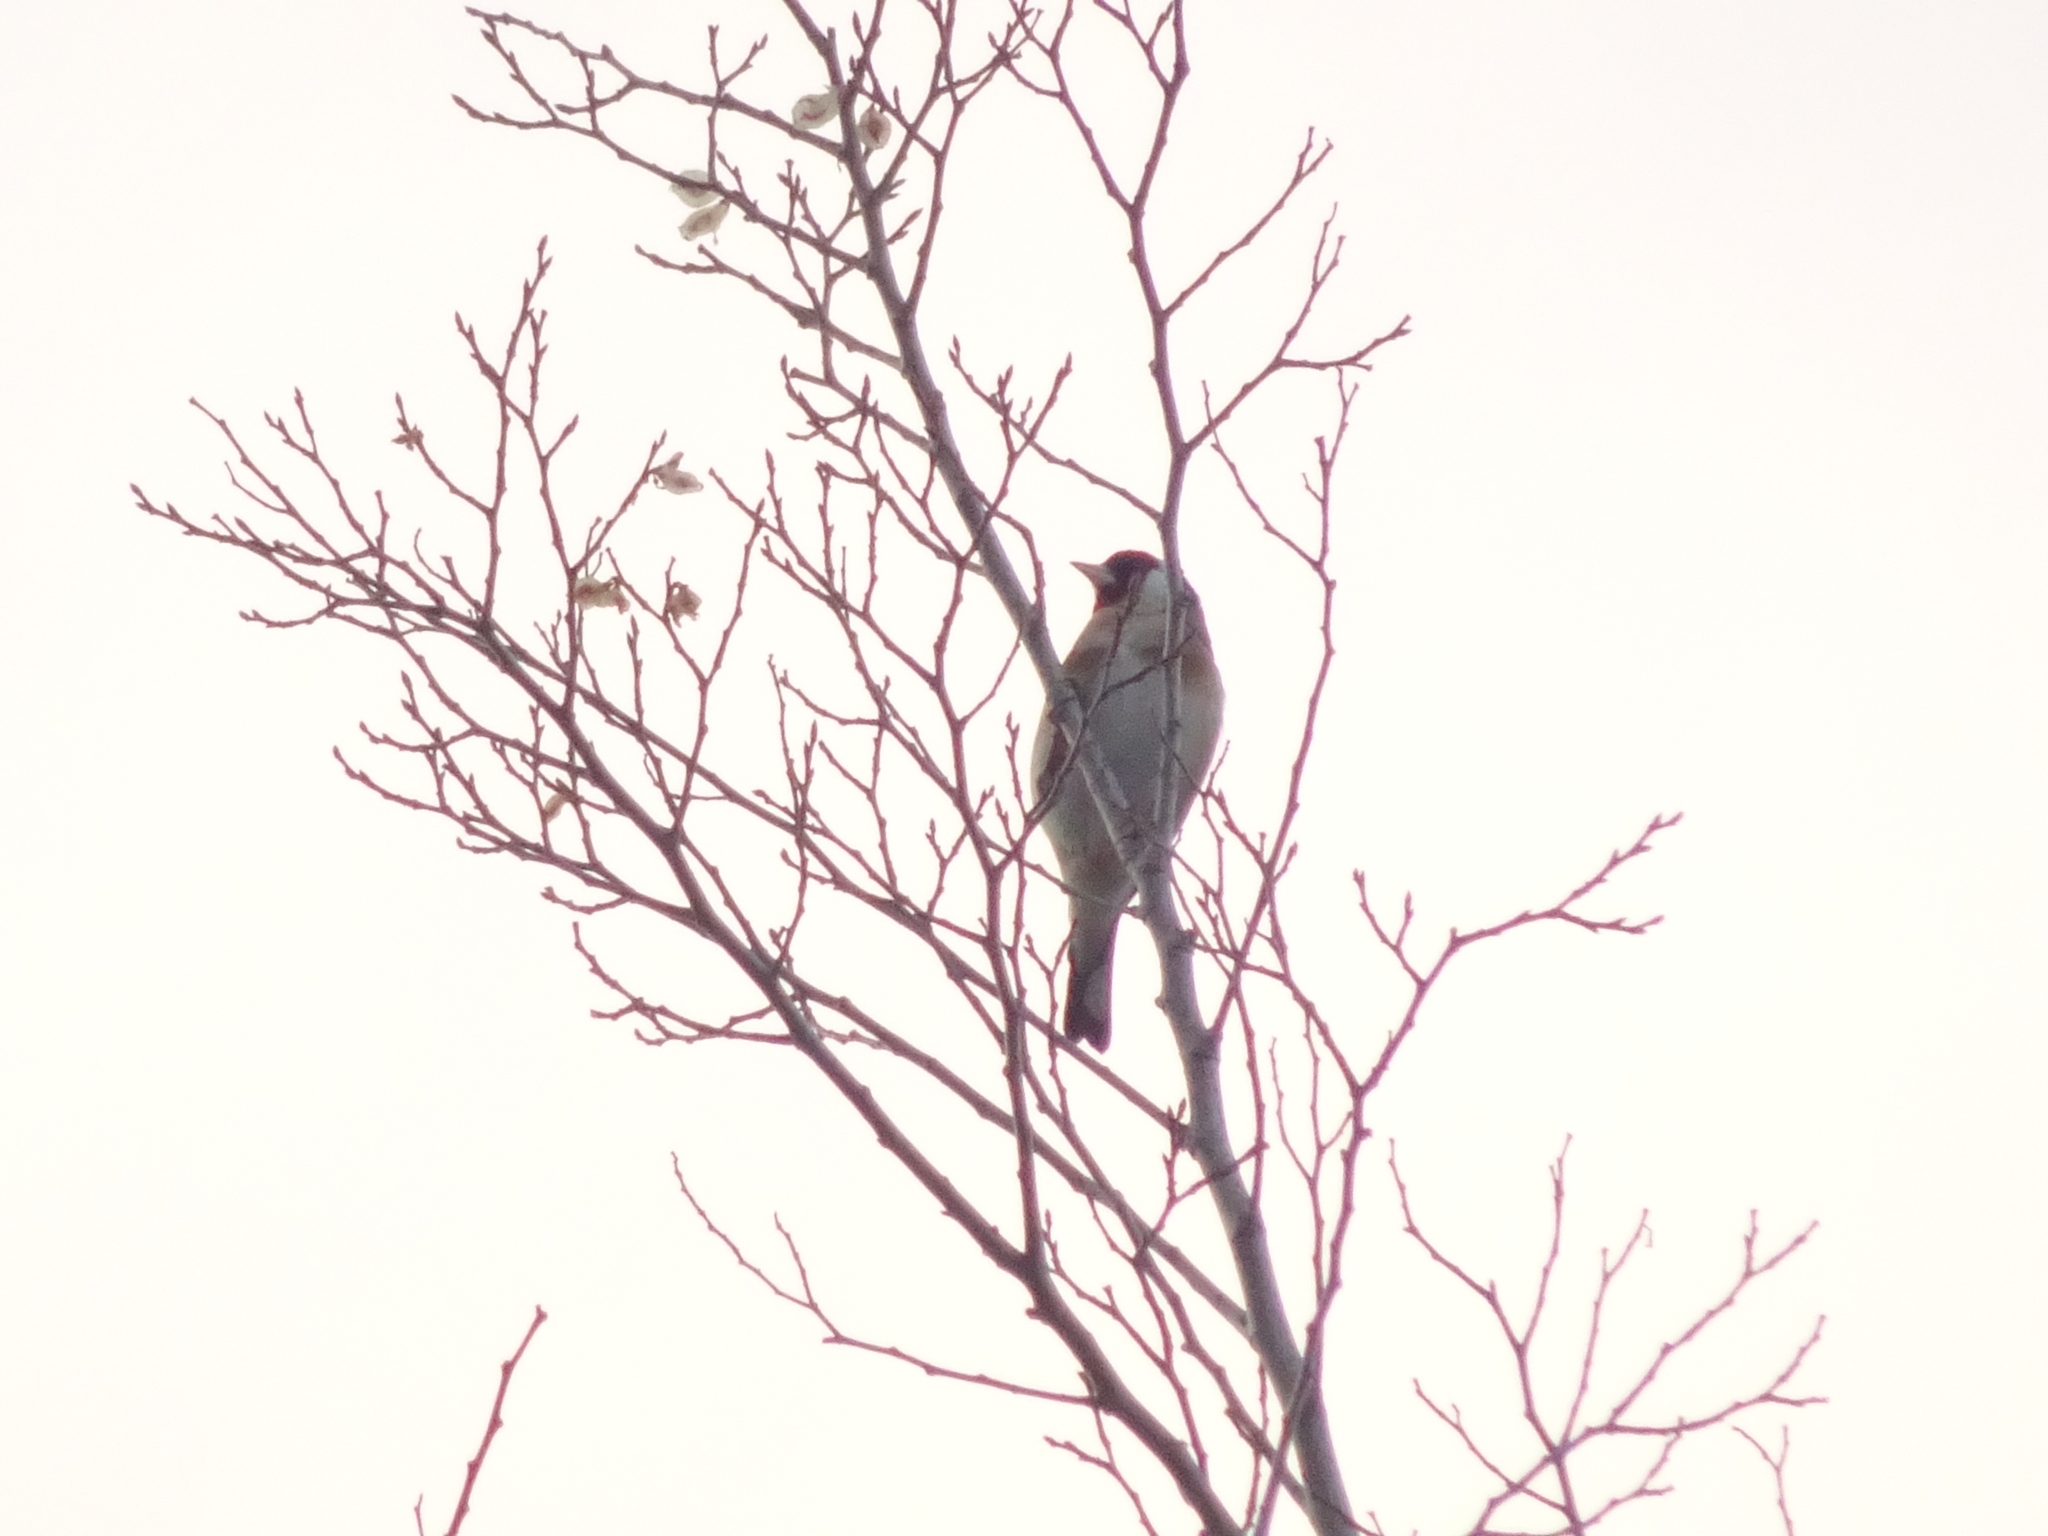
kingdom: Animalia
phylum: Chordata
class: Aves
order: Passeriformes
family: Fringillidae
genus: Carduelis
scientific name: Carduelis carduelis
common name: European goldfinch
